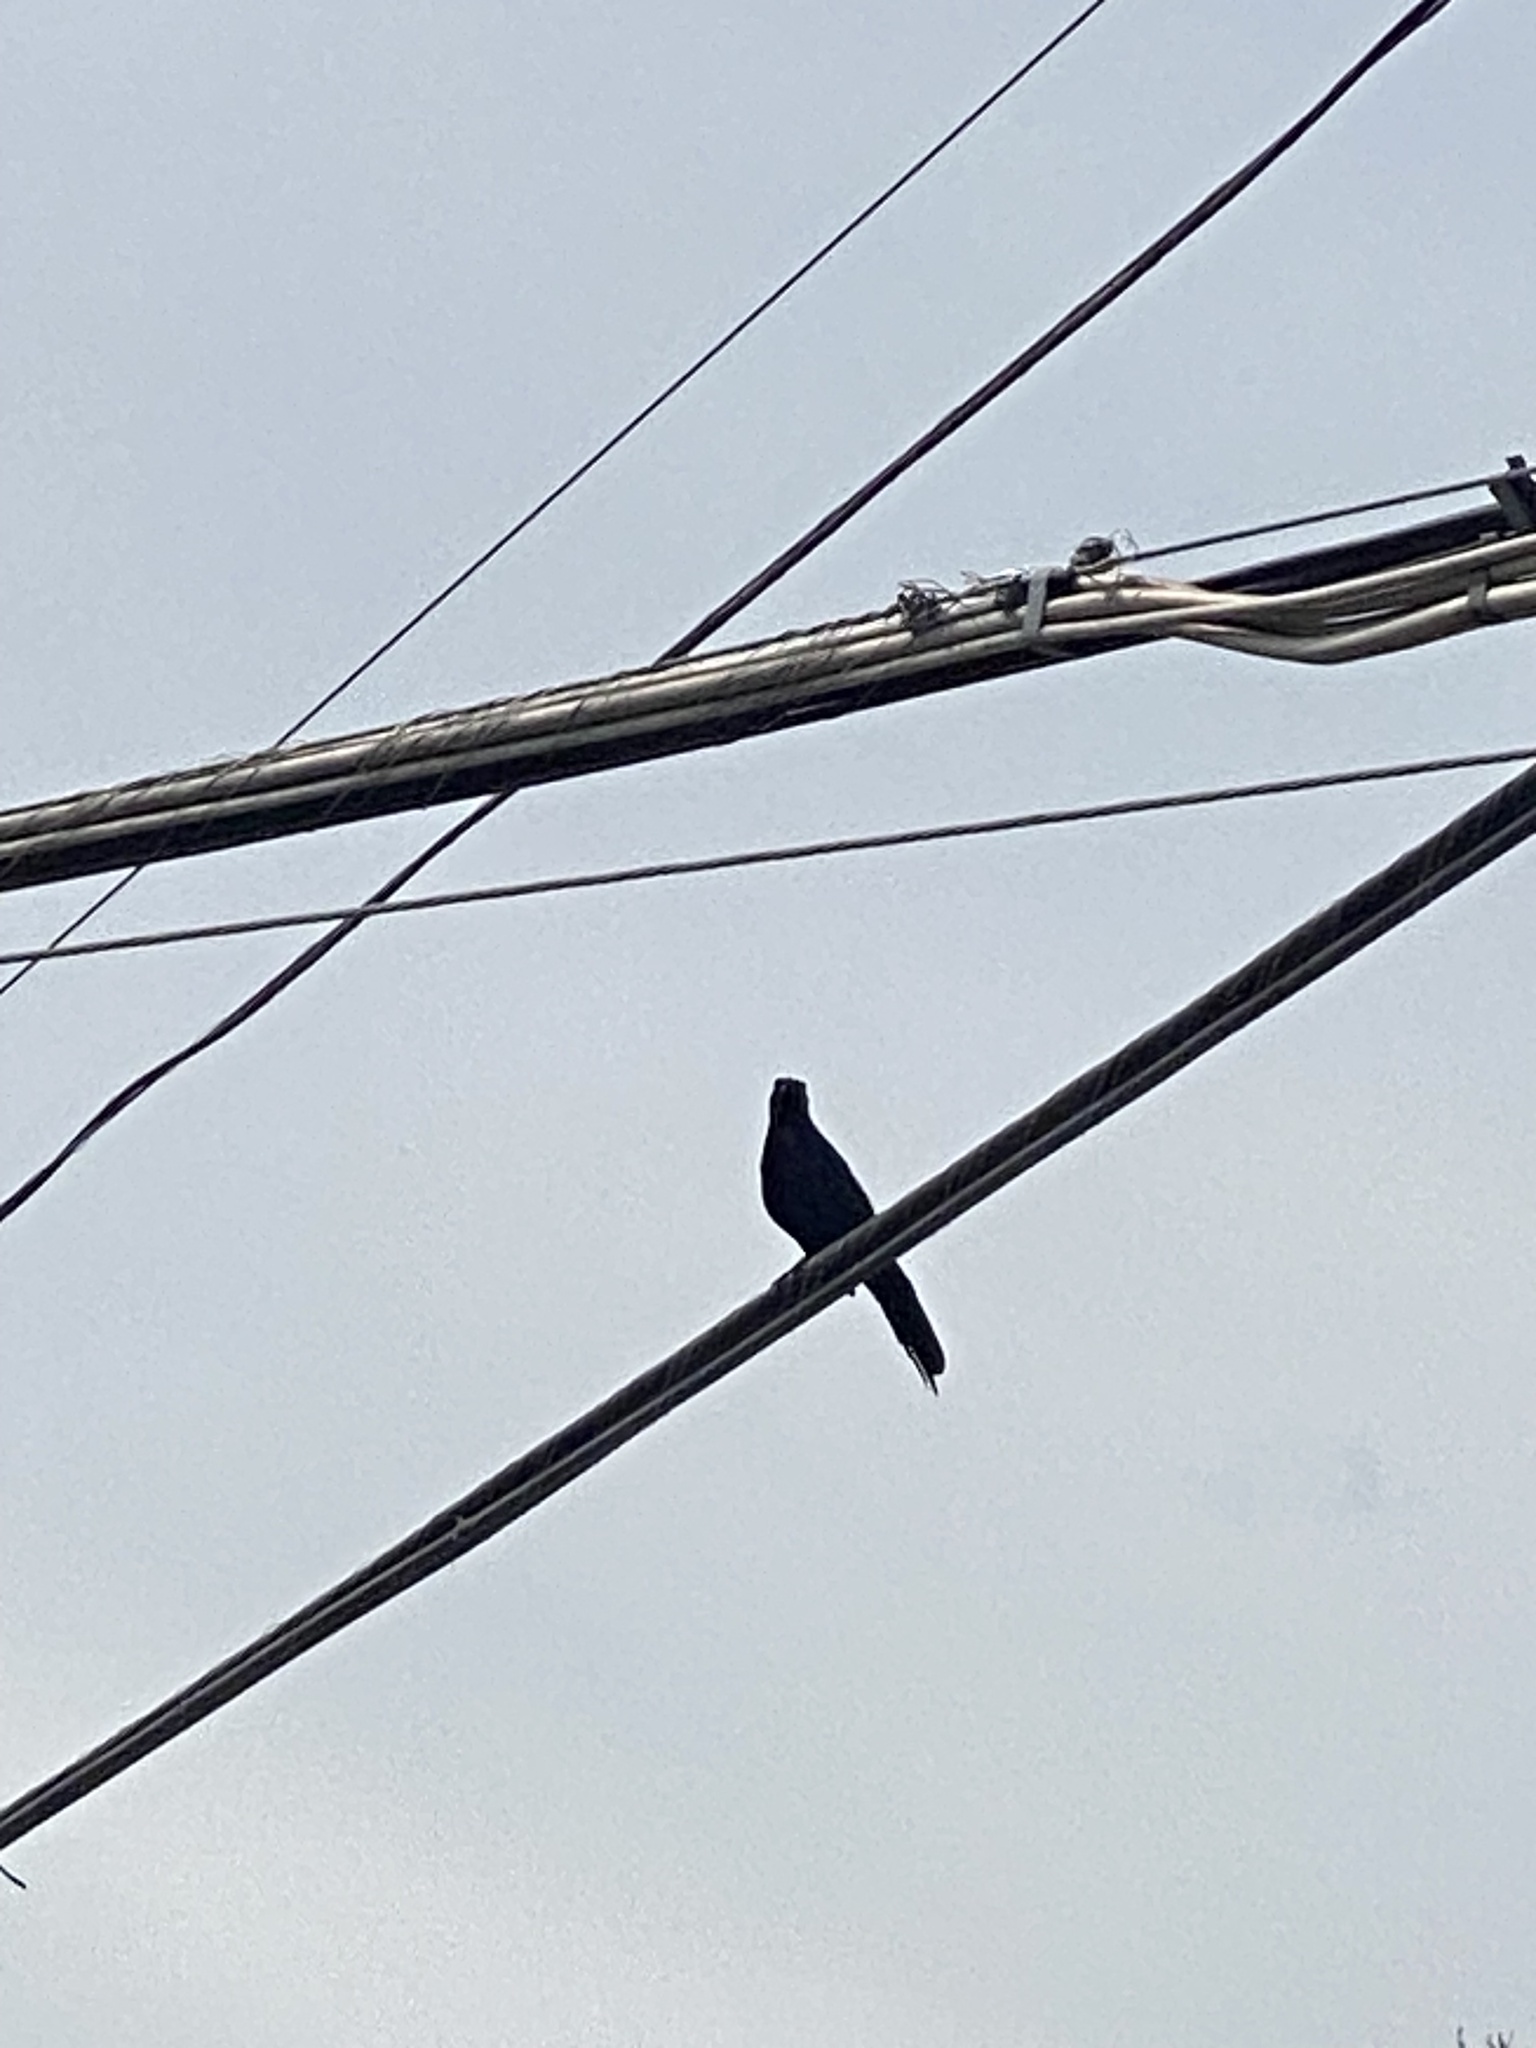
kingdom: Animalia
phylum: Chordata
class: Aves
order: Passeriformes
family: Icteridae
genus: Quiscalus
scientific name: Quiscalus mexicanus
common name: Great-tailed grackle
